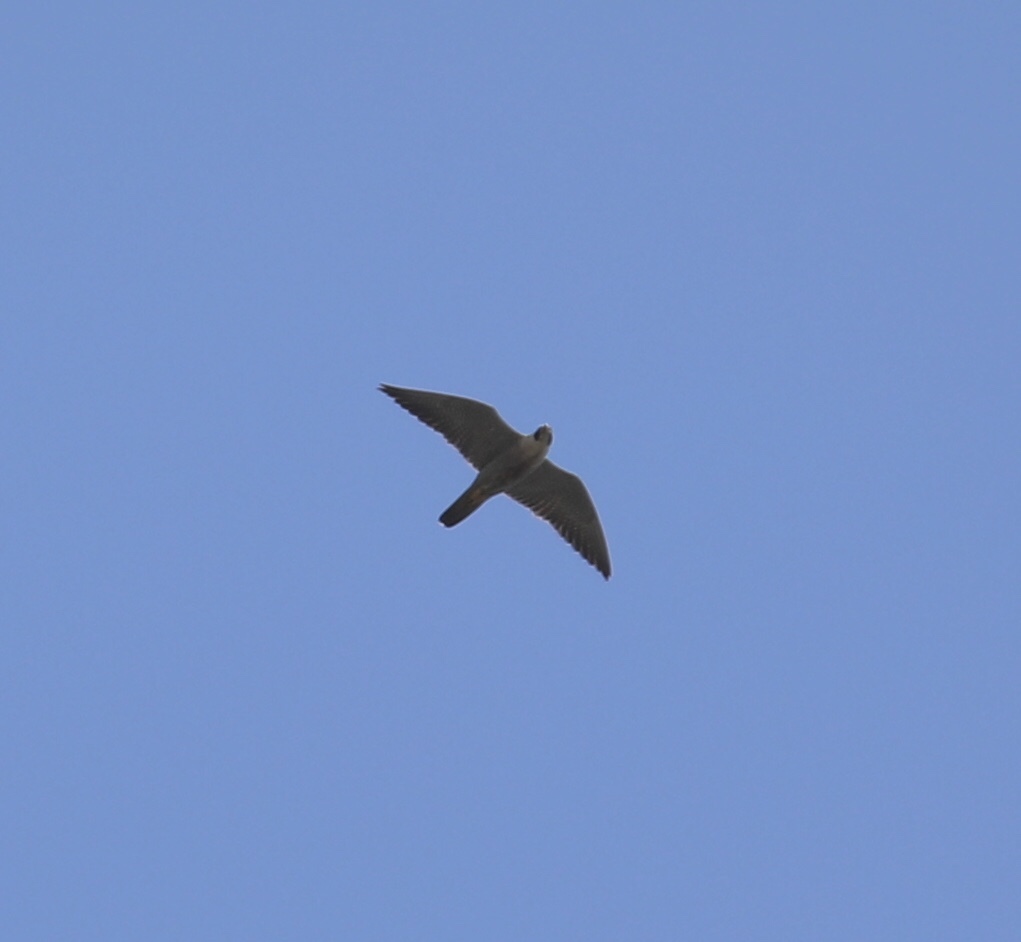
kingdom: Animalia
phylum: Chordata
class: Aves
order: Falconiformes
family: Falconidae
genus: Falco
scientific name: Falco peregrinus
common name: Peregrine falcon
